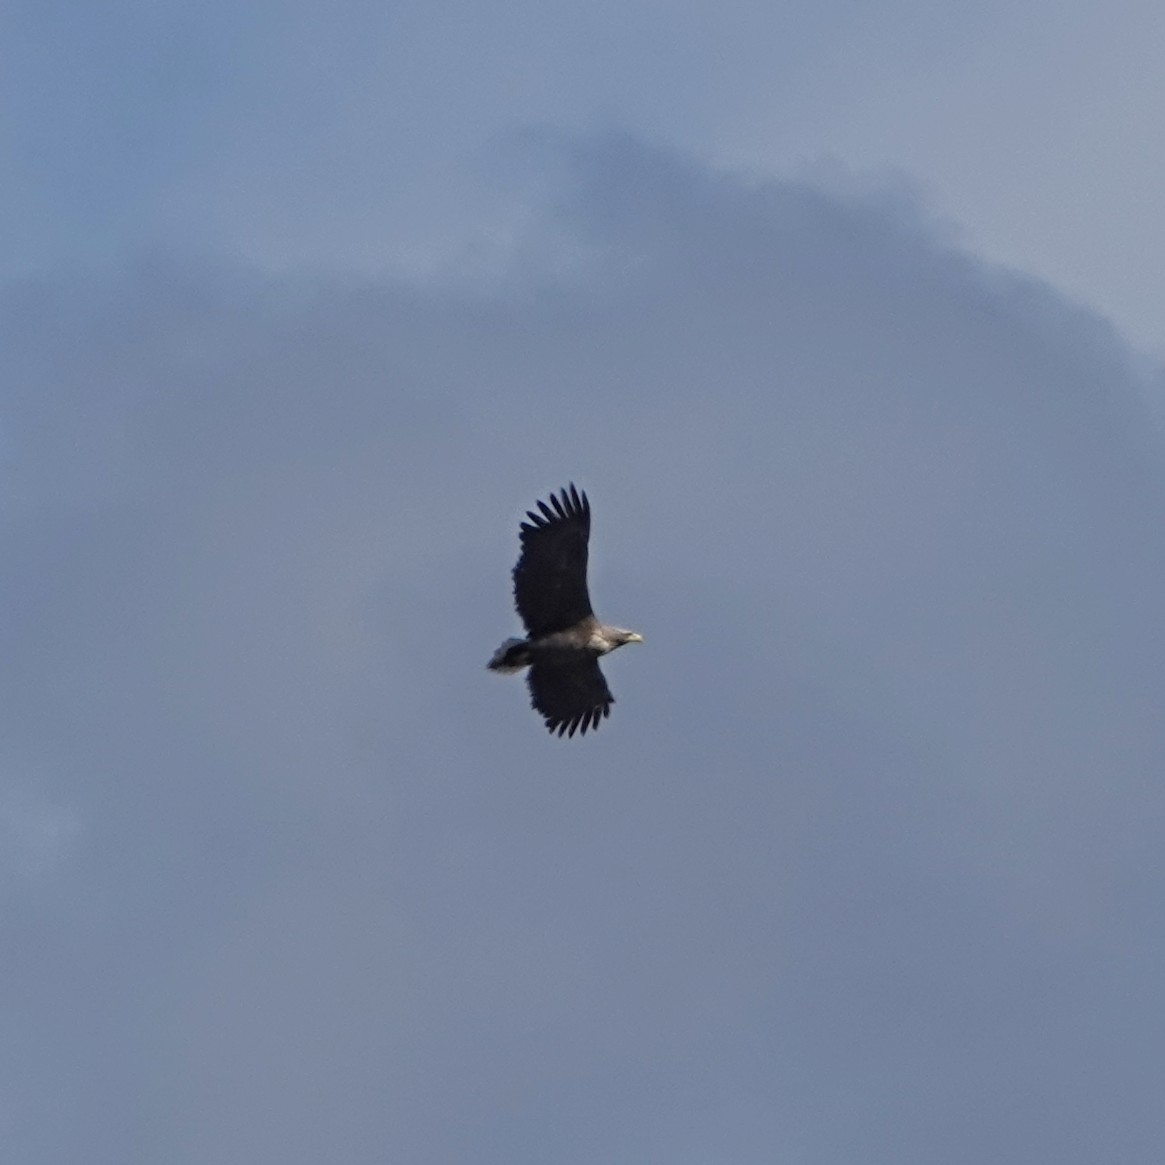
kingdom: Animalia
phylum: Chordata
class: Aves
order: Accipitriformes
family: Accipitridae
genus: Haliaeetus
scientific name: Haliaeetus albicilla
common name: White-tailed eagle
